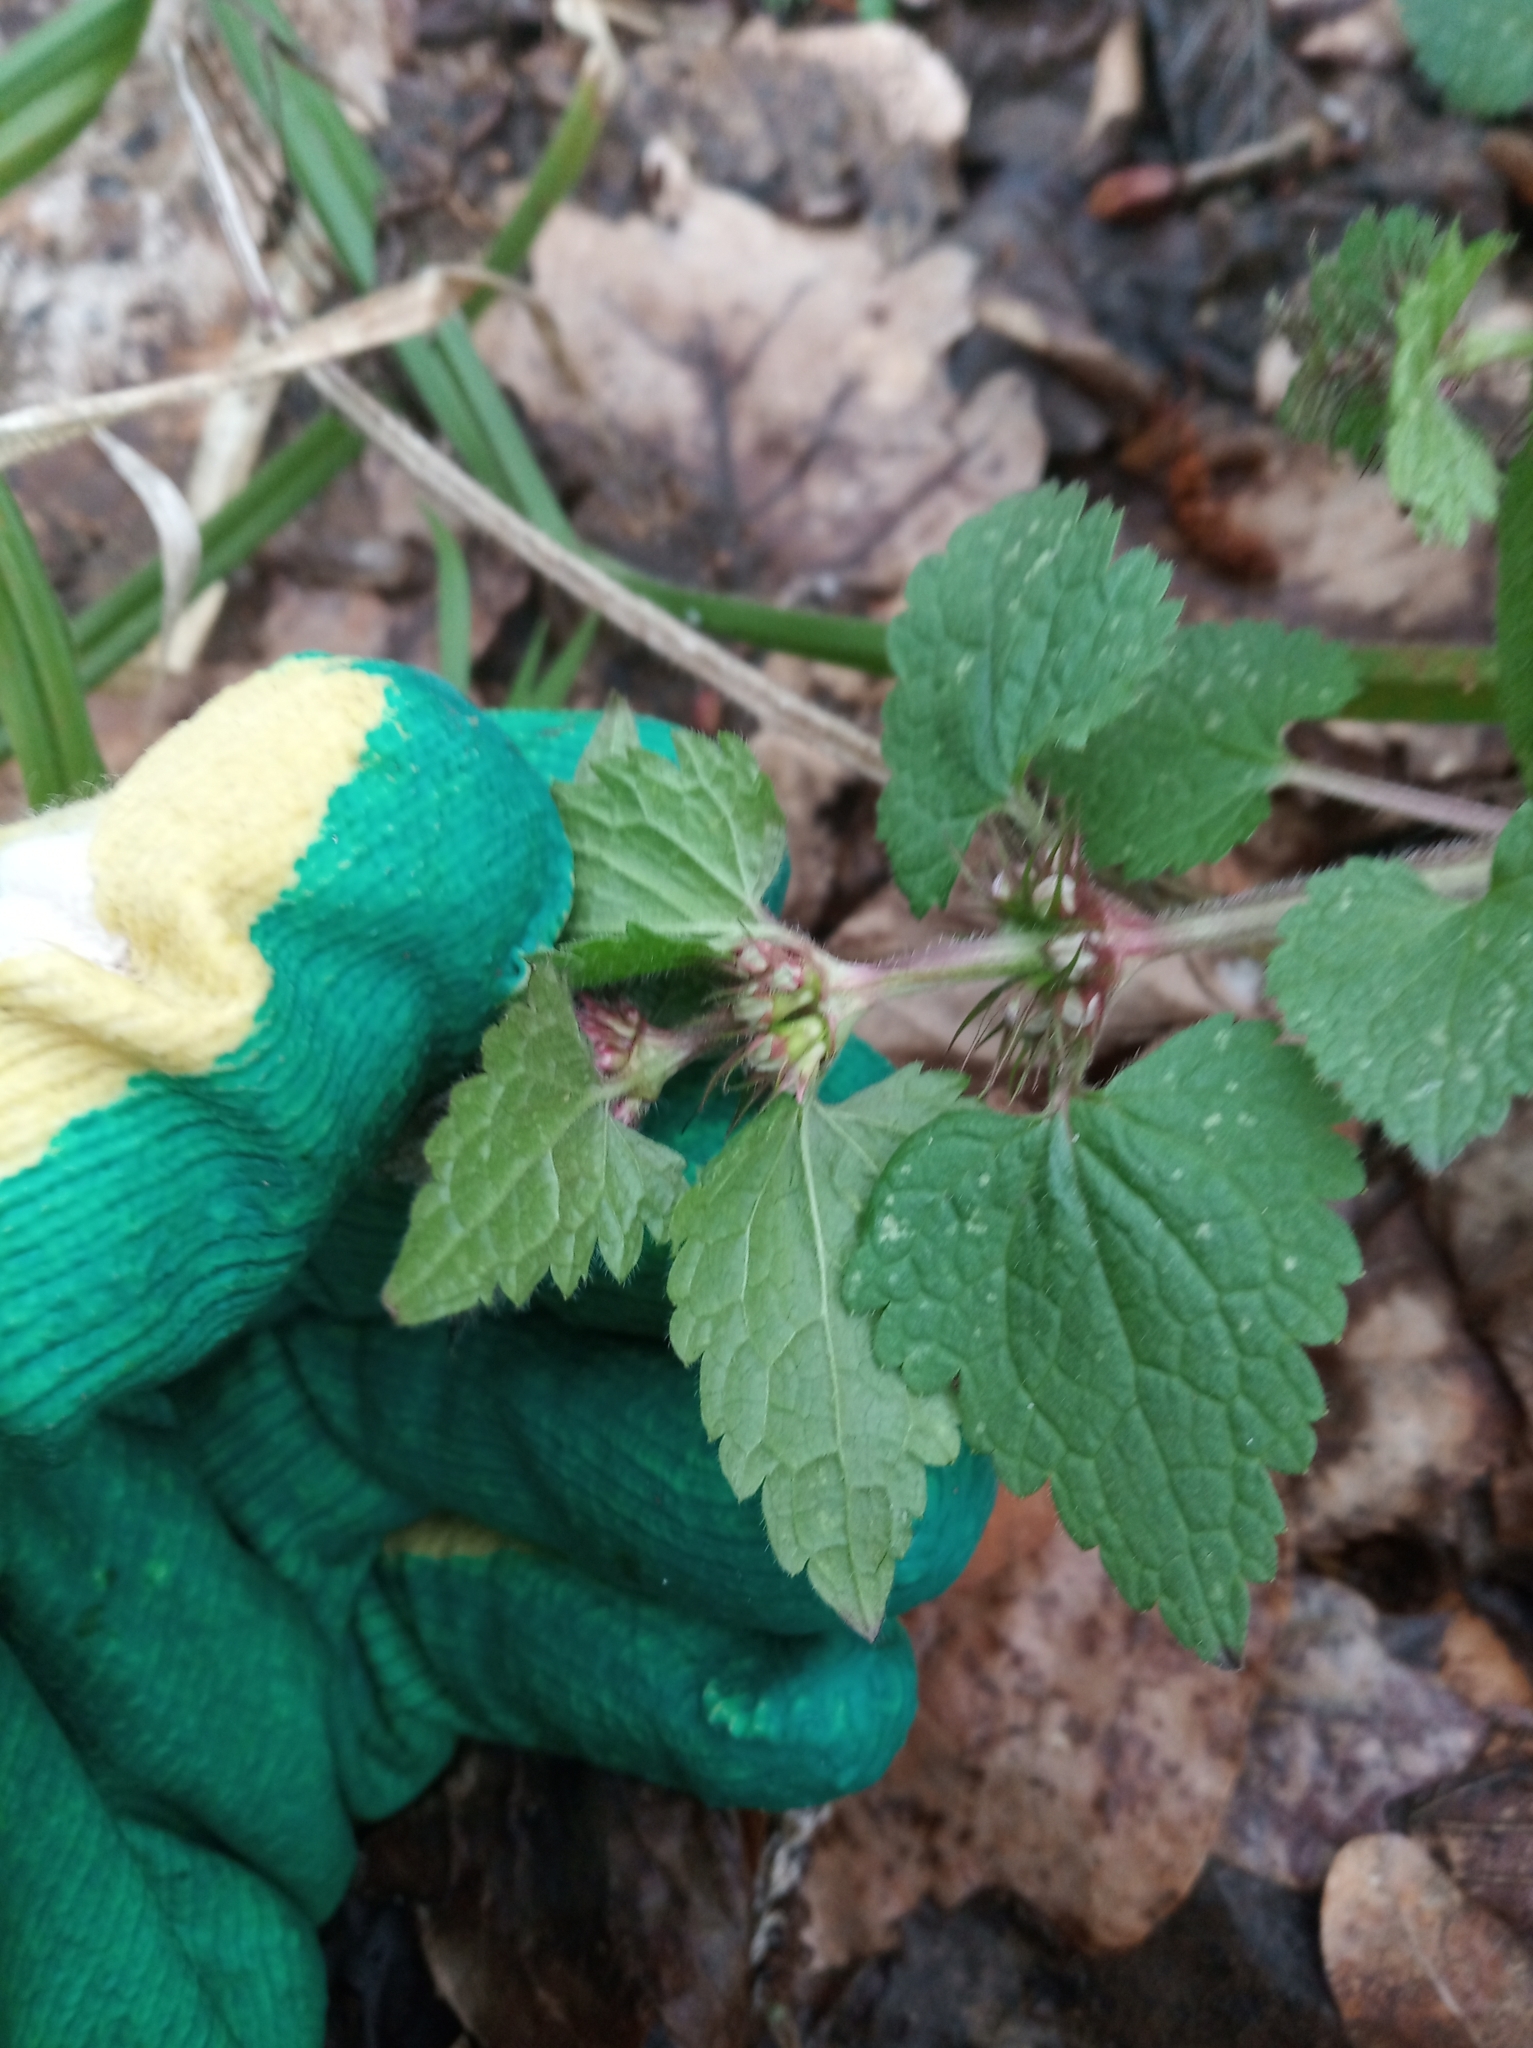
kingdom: Plantae
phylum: Tracheophyta
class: Magnoliopsida
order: Lamiales
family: Lamiaceae
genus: Lamium
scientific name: Lamium maculatum
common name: Spotted dead-nettle
